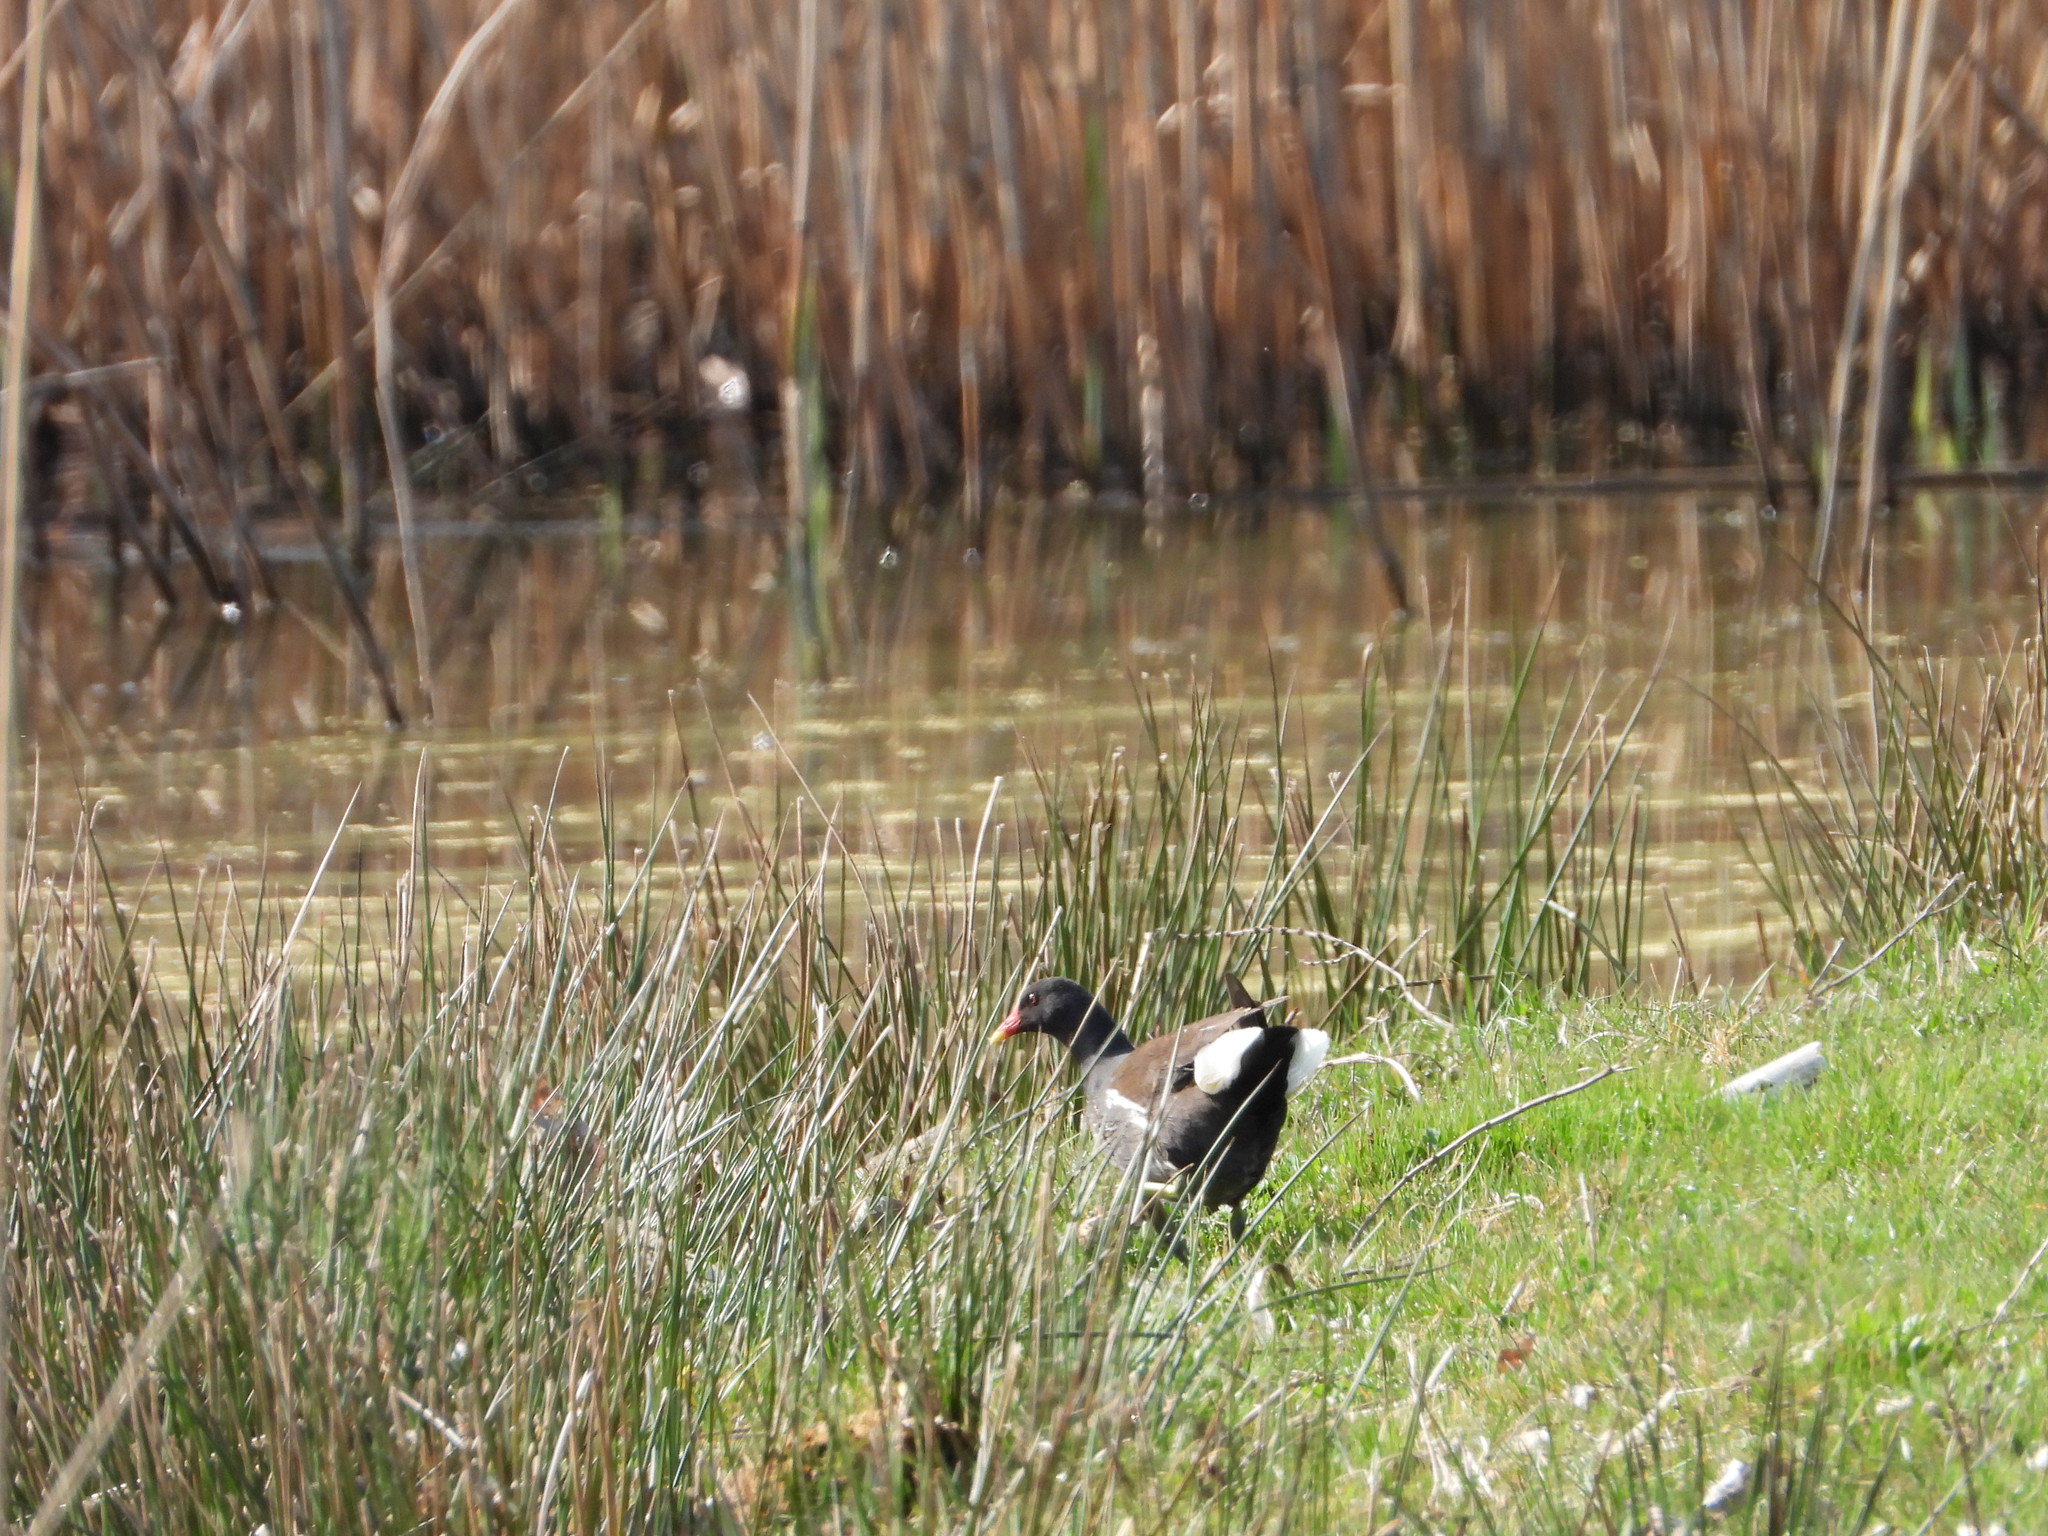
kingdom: Animalia
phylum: Chordata
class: Aves
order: Gruiformes
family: Rallidae
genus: Gallinula
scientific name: Gallinula chloropus
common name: Common moorhen
